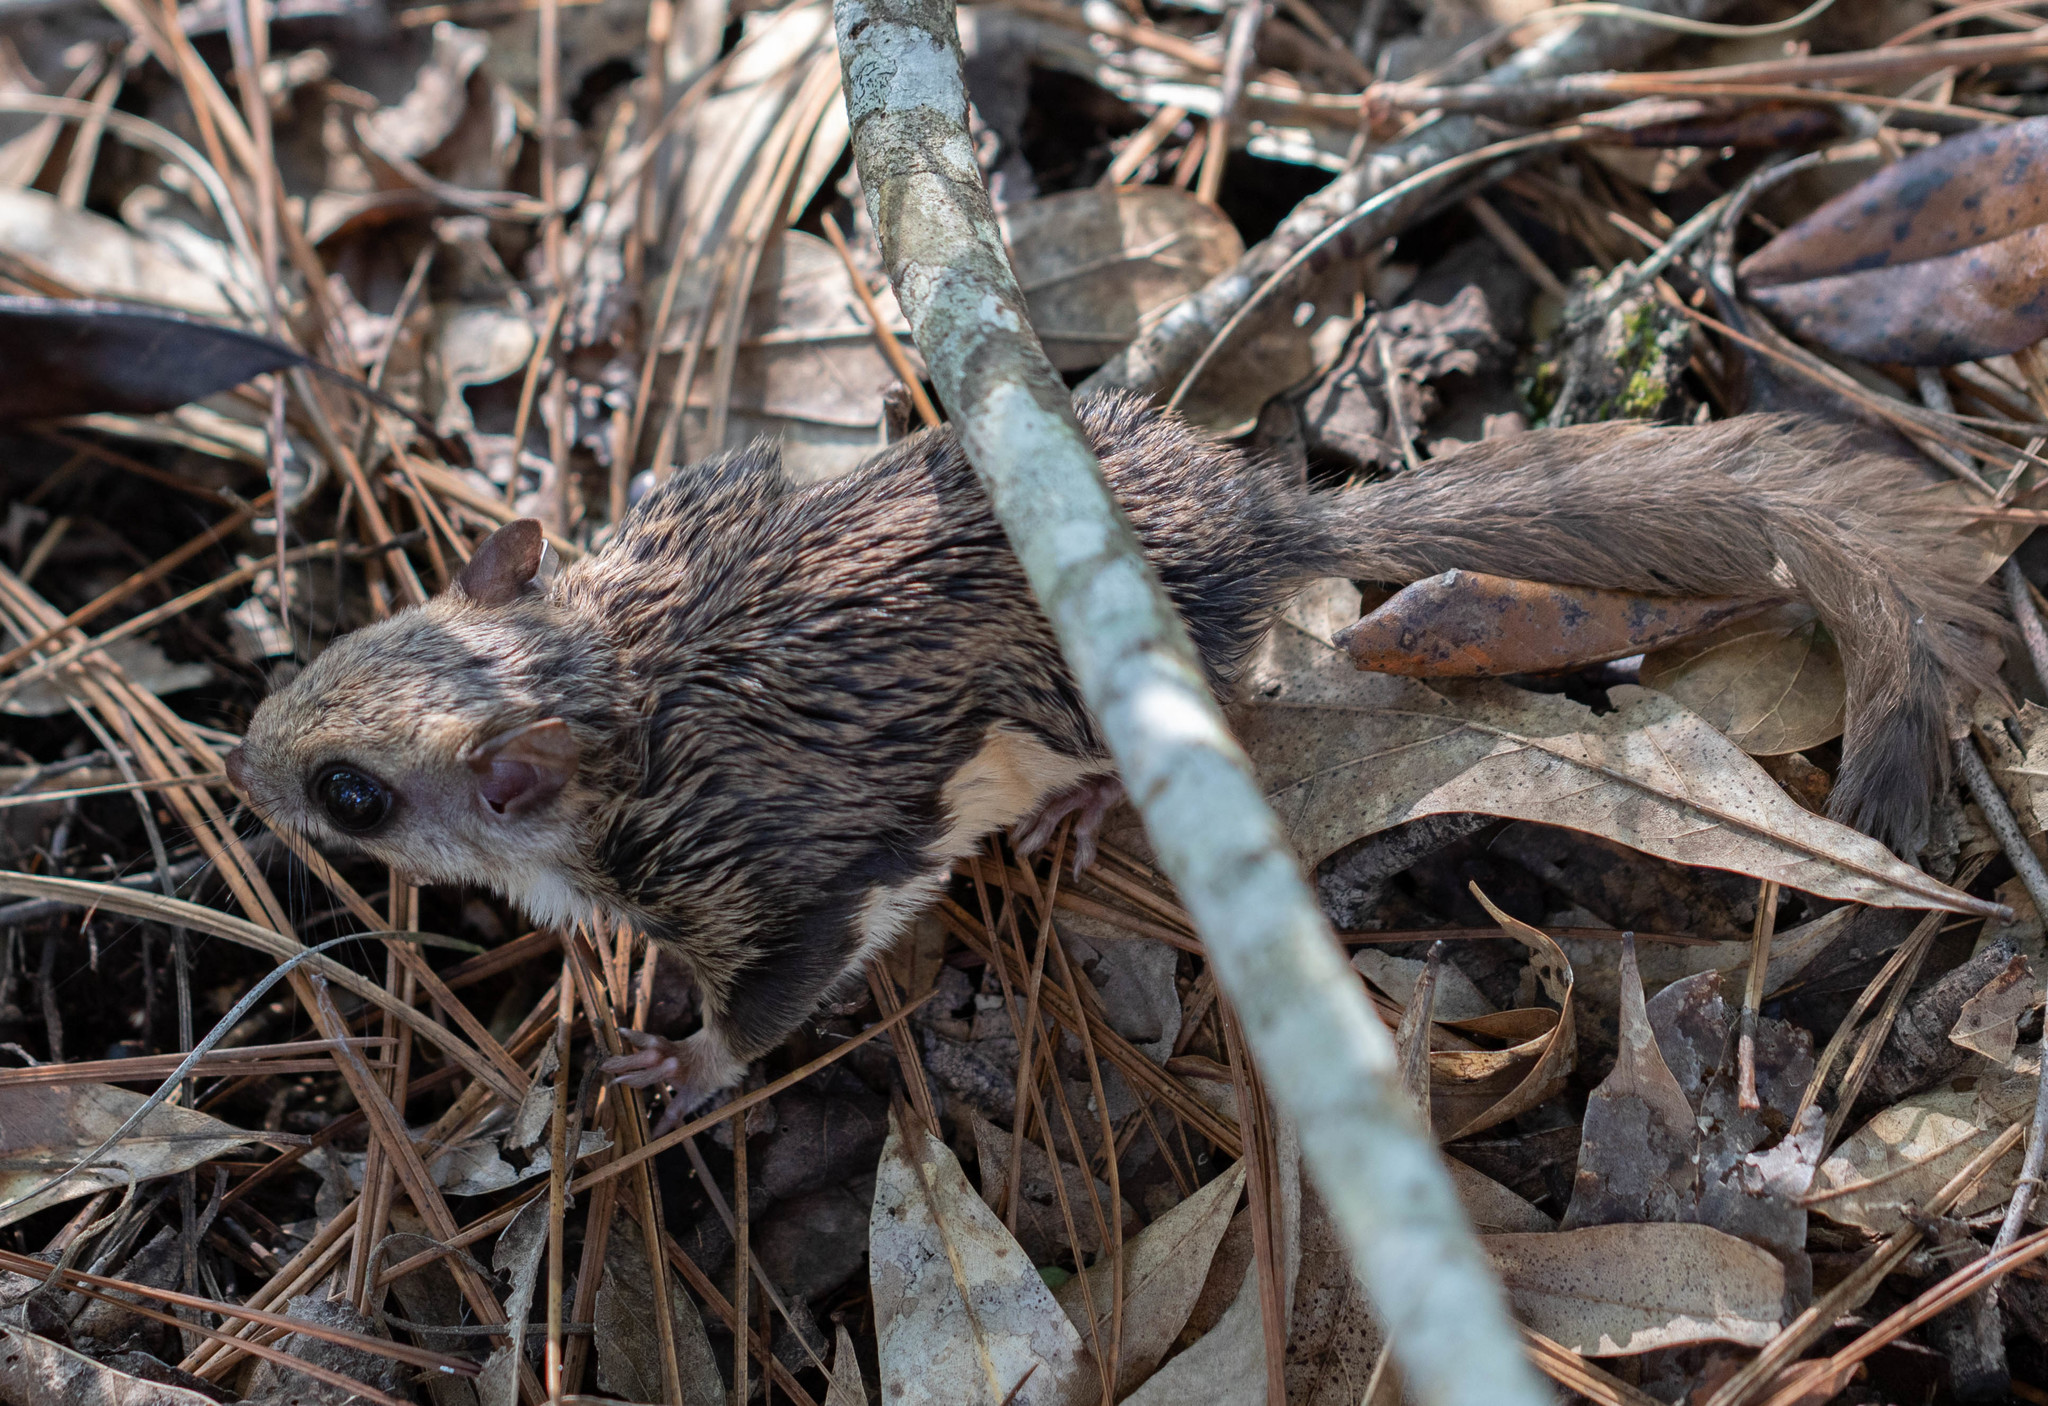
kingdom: Animalia
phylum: Chordata
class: Mammalia
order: Rodentia
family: Sciuridae
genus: Glaucomys
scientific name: Glaucomys volans
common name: Southern flying squirrel
